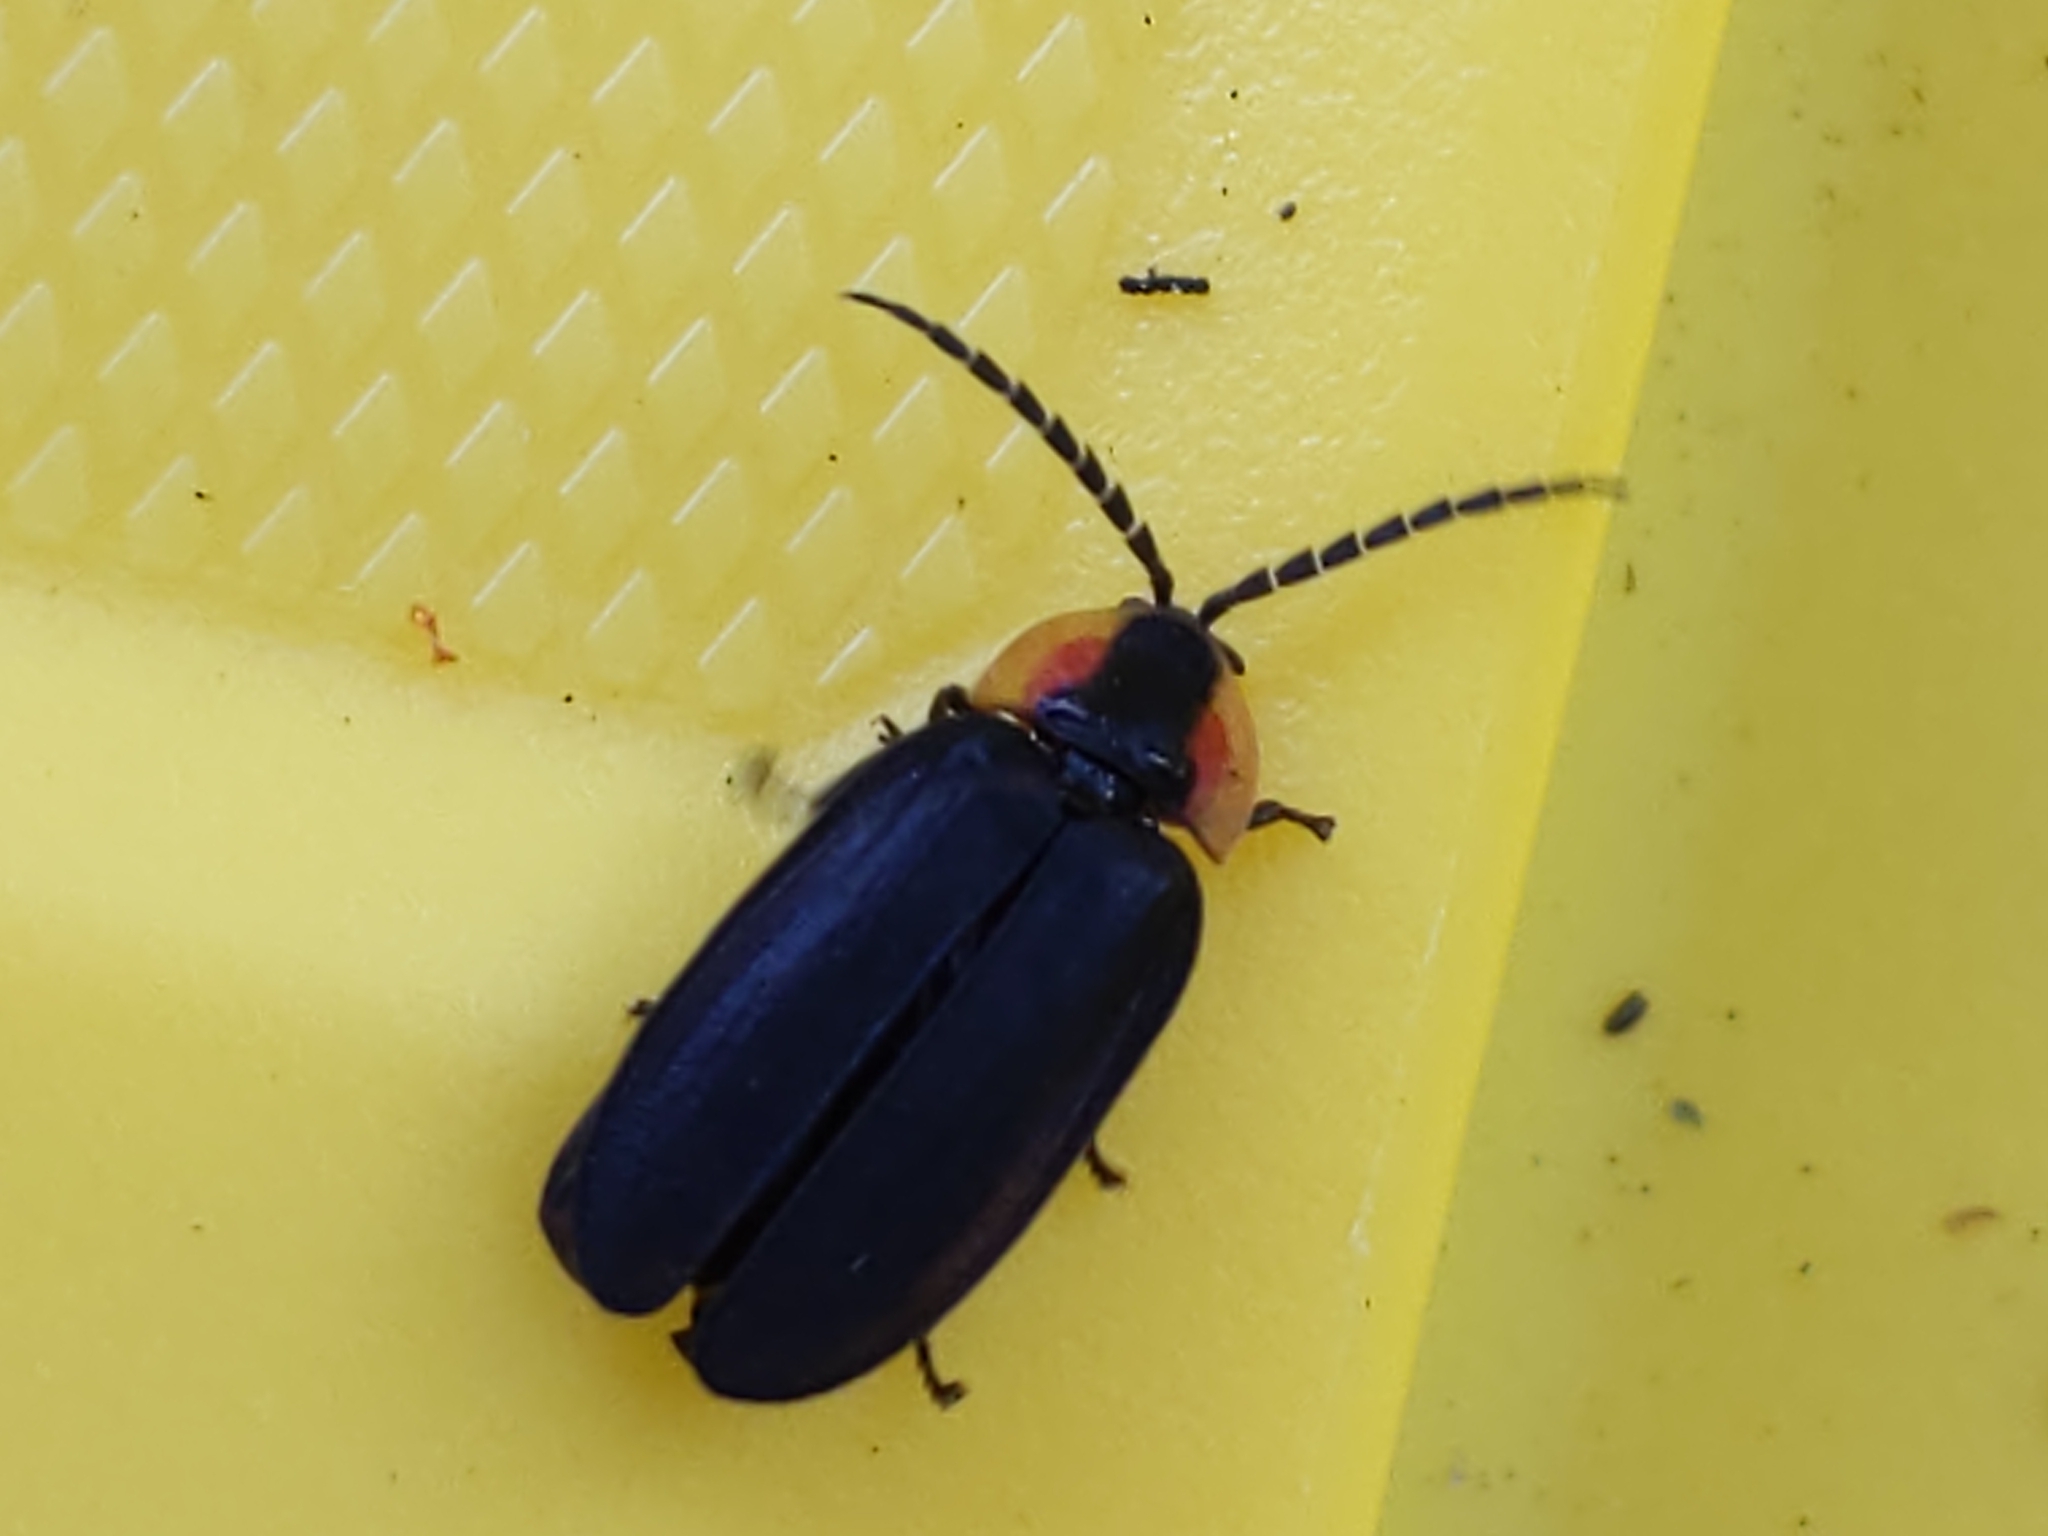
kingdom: Animalia
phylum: Arthropoda
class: Insecta
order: Coleoptera
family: Lampyridae
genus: Lucidota
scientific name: Lucidota atra
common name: Black firefly
